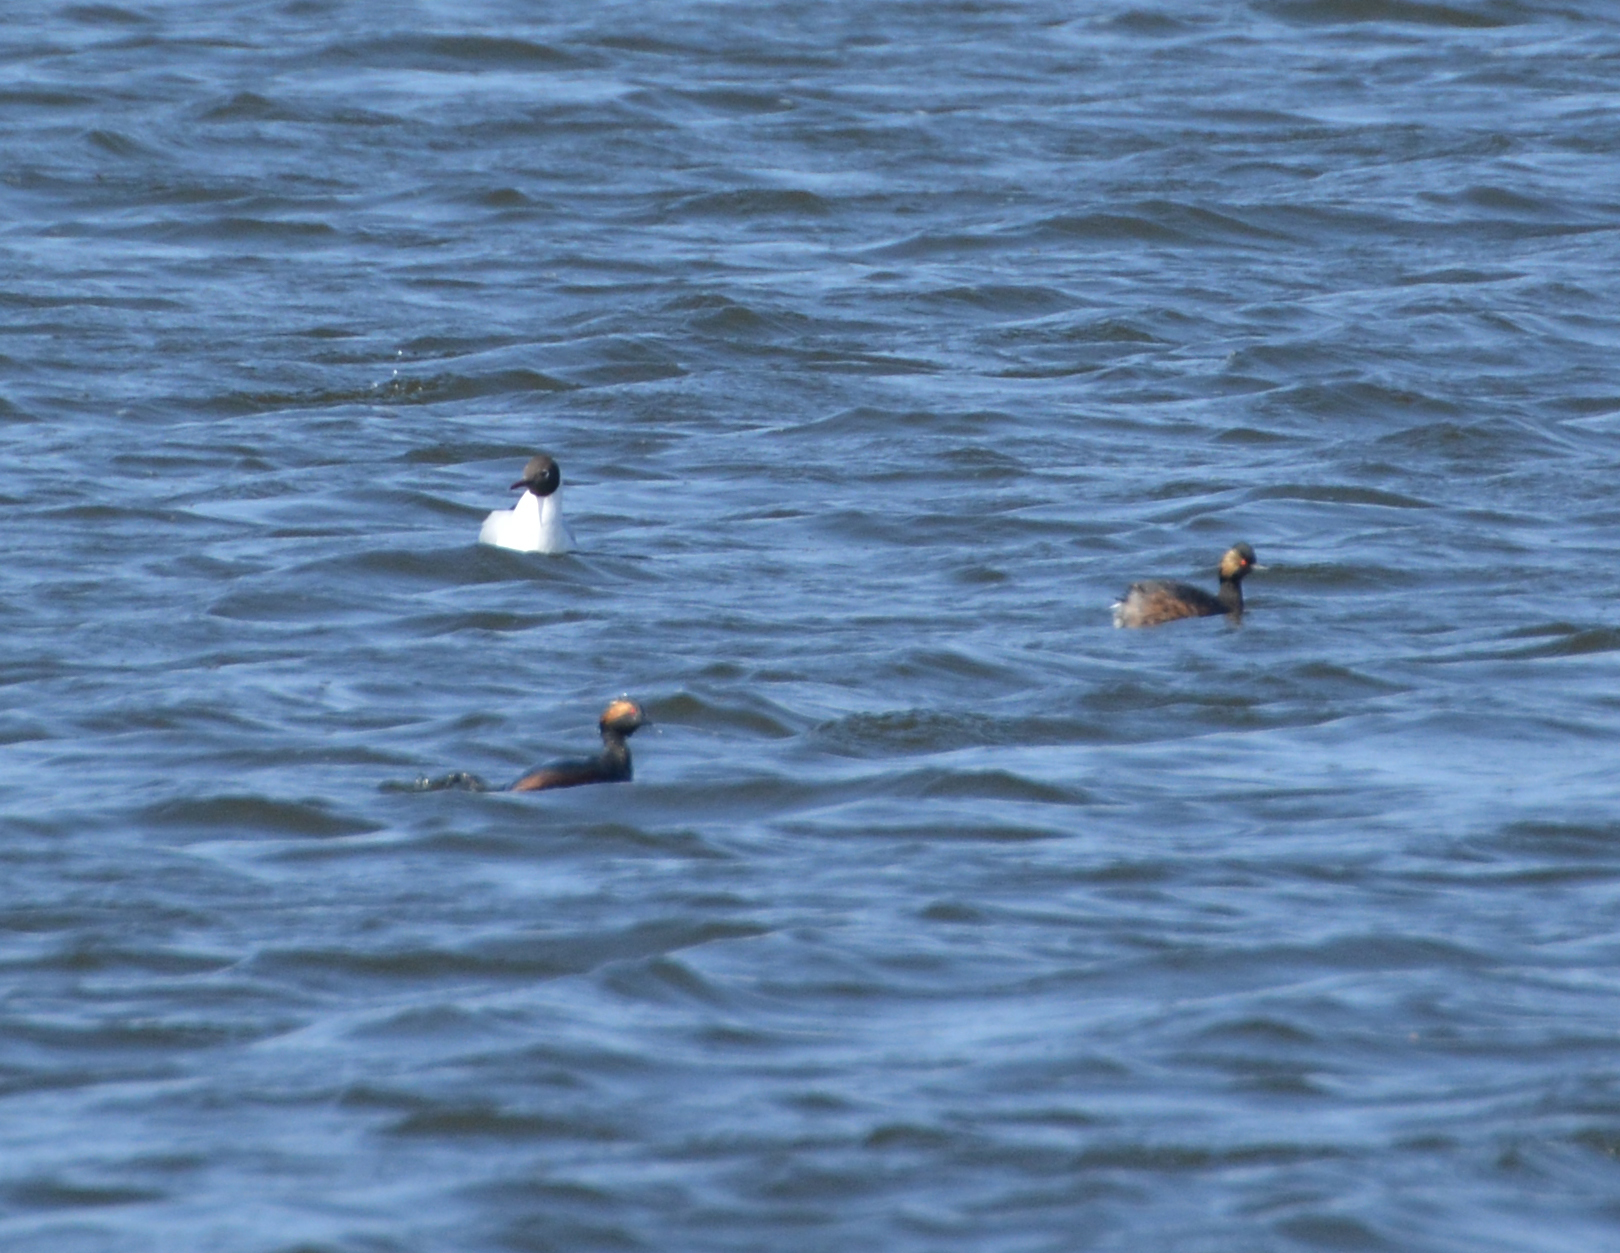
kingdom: Animalia
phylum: Chordata
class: Aves
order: Podicipediformes
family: Podicipedidae
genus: Podiceps
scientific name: Podiceps nigricollis
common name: Black-necked grebe
